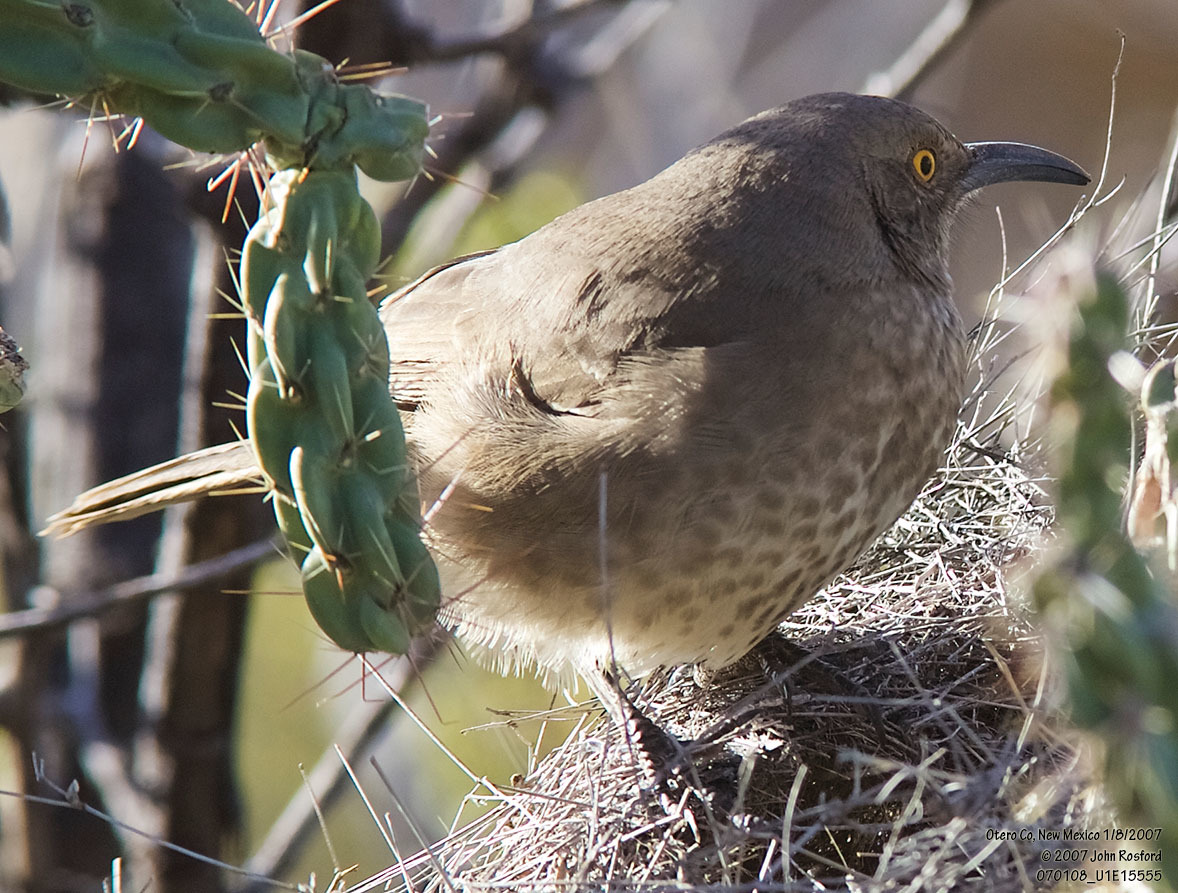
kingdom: Animalia
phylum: Chordata
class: Aves
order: Passeriformes
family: Mimidae
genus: Toxostoma
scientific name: Toxostoma curvirostre
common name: Curve-billed thrasher
